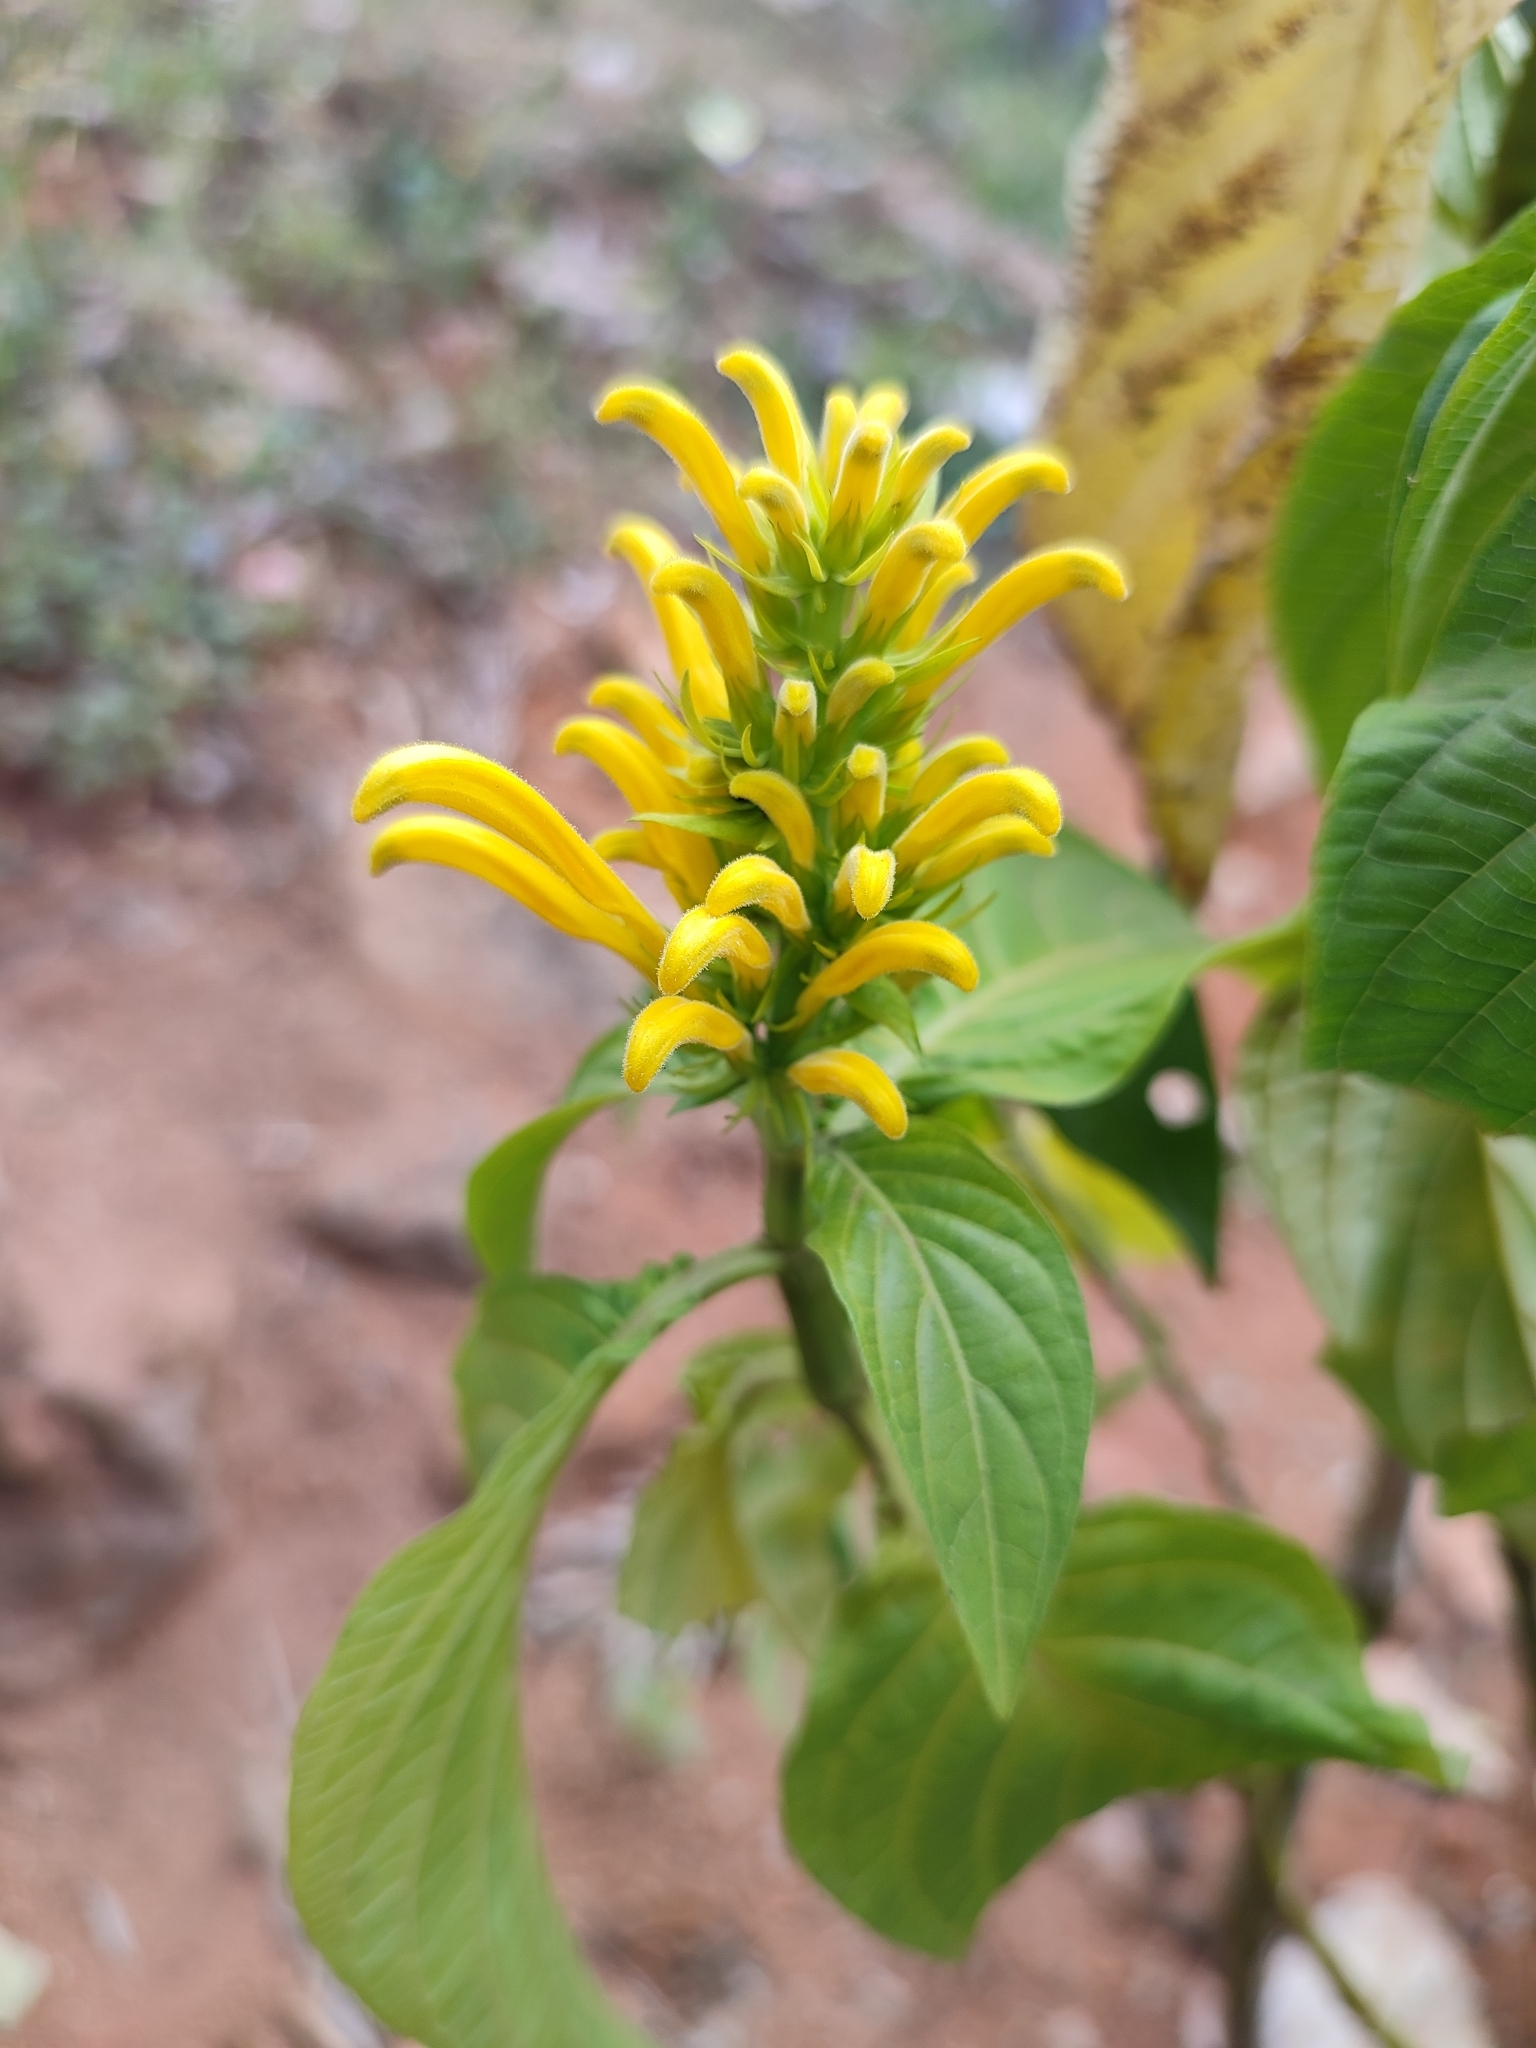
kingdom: Plantae
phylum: Tracheophyta
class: Magnoliopsida
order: Lamiales
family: Acanthaceae
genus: Justicia
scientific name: Justicia aurea
